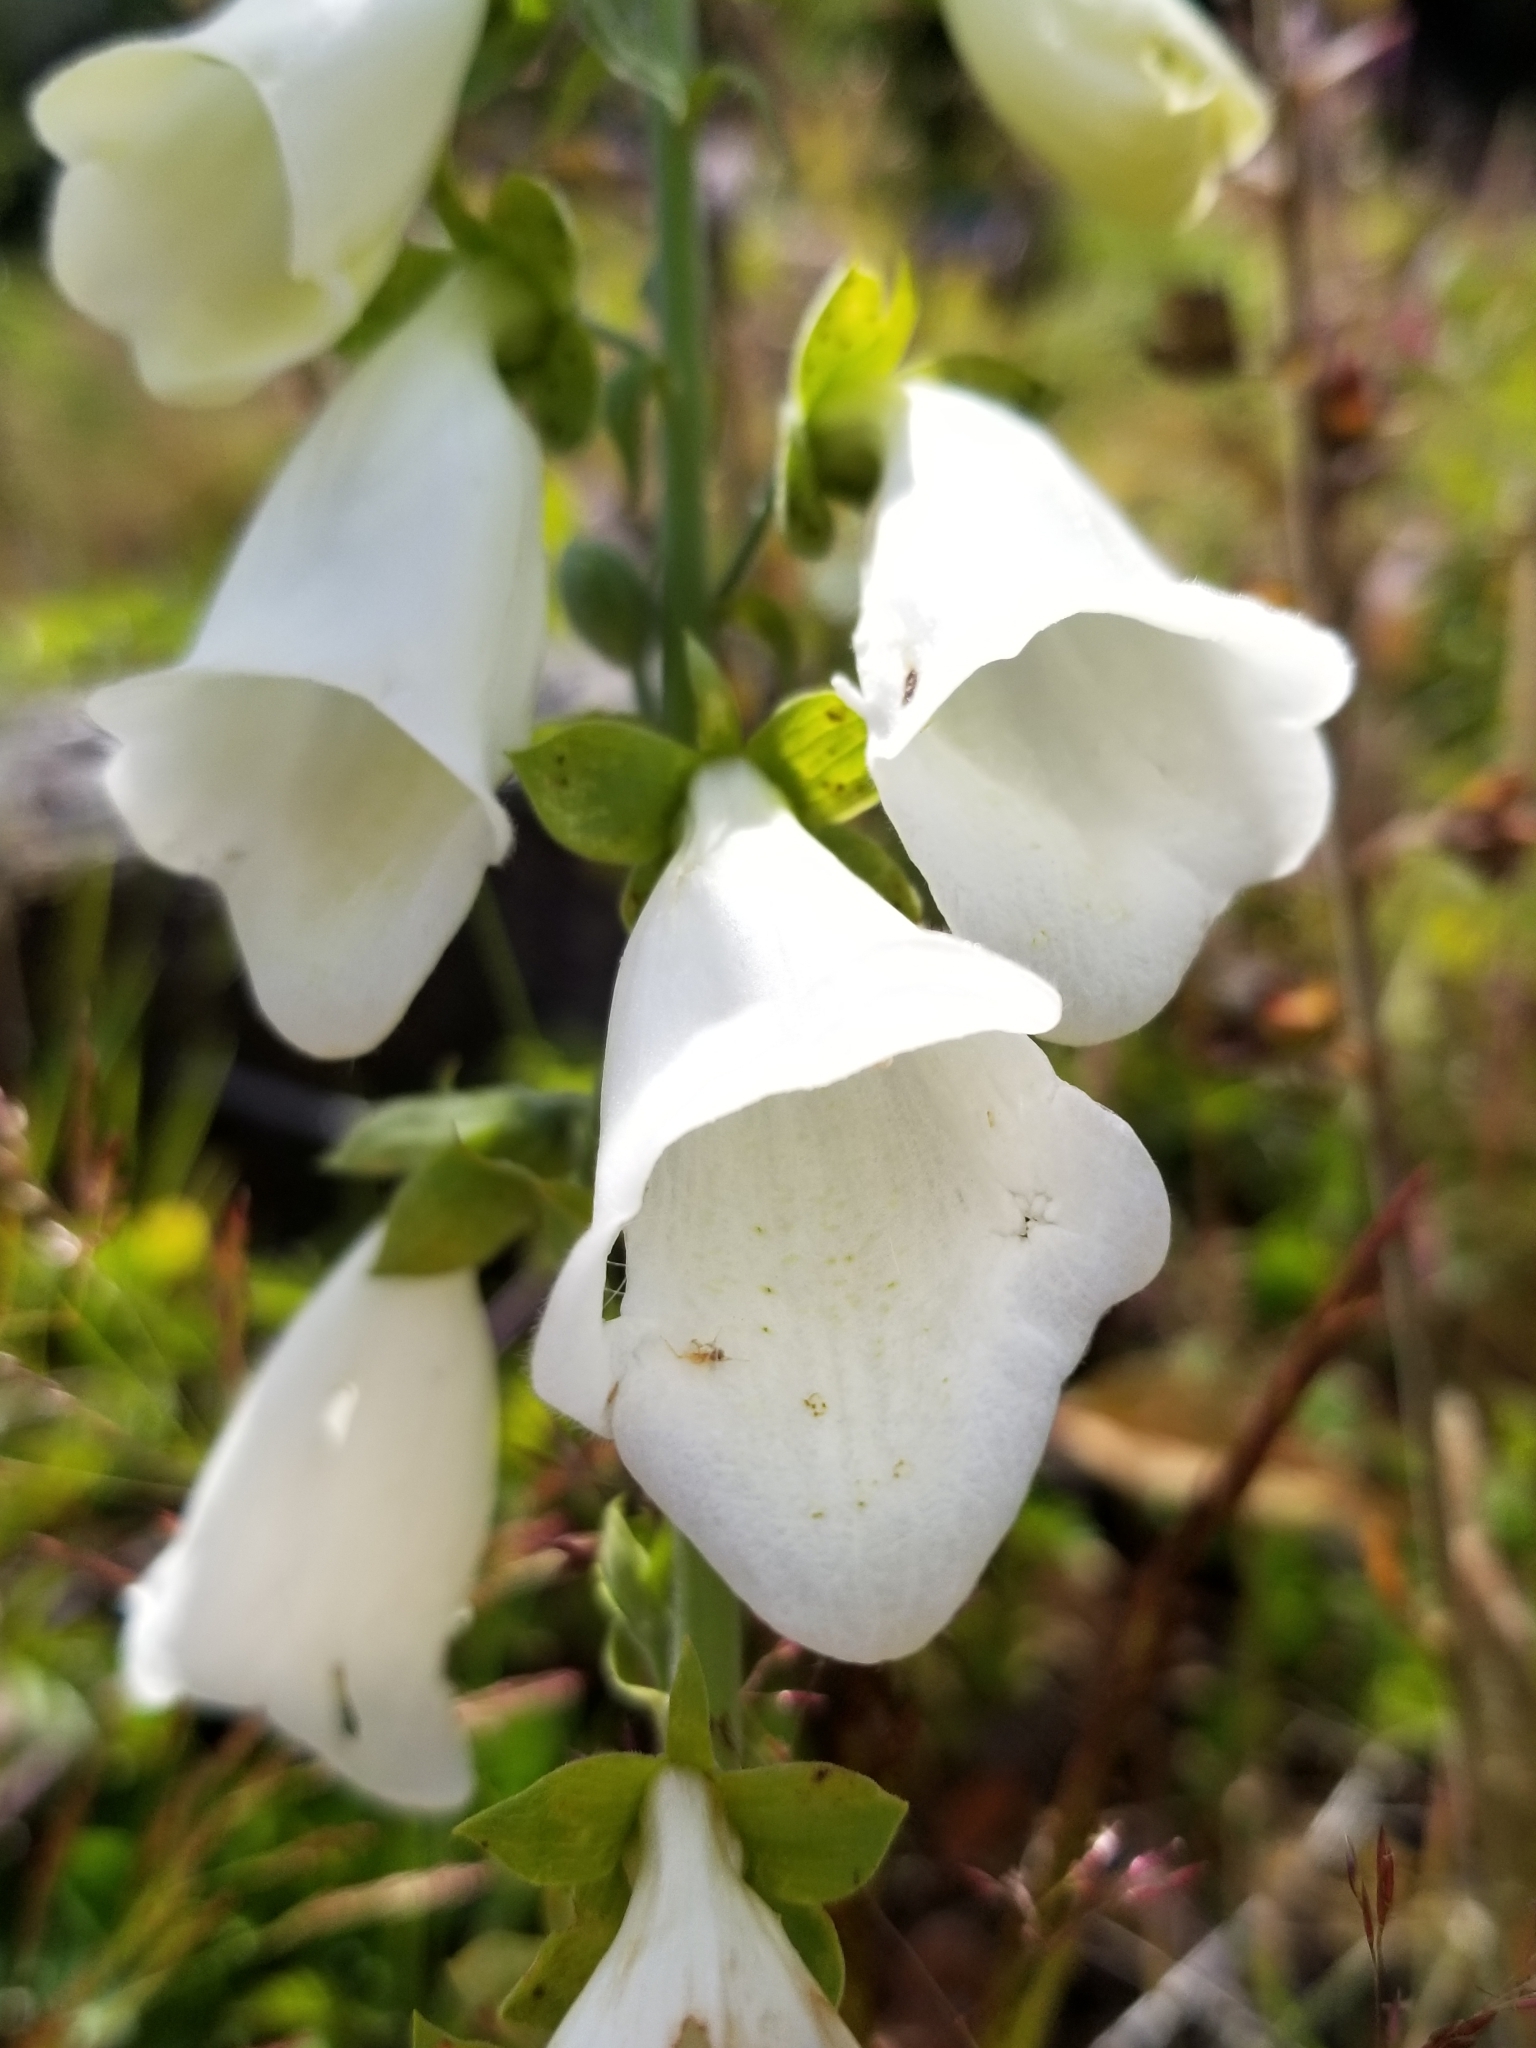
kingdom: Plantae
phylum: Tracheophyta
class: Magnoliopsida
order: Lamiales
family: Plantaginaceae
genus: Digitalis
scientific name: Digitalis purpurea
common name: Foxglove
